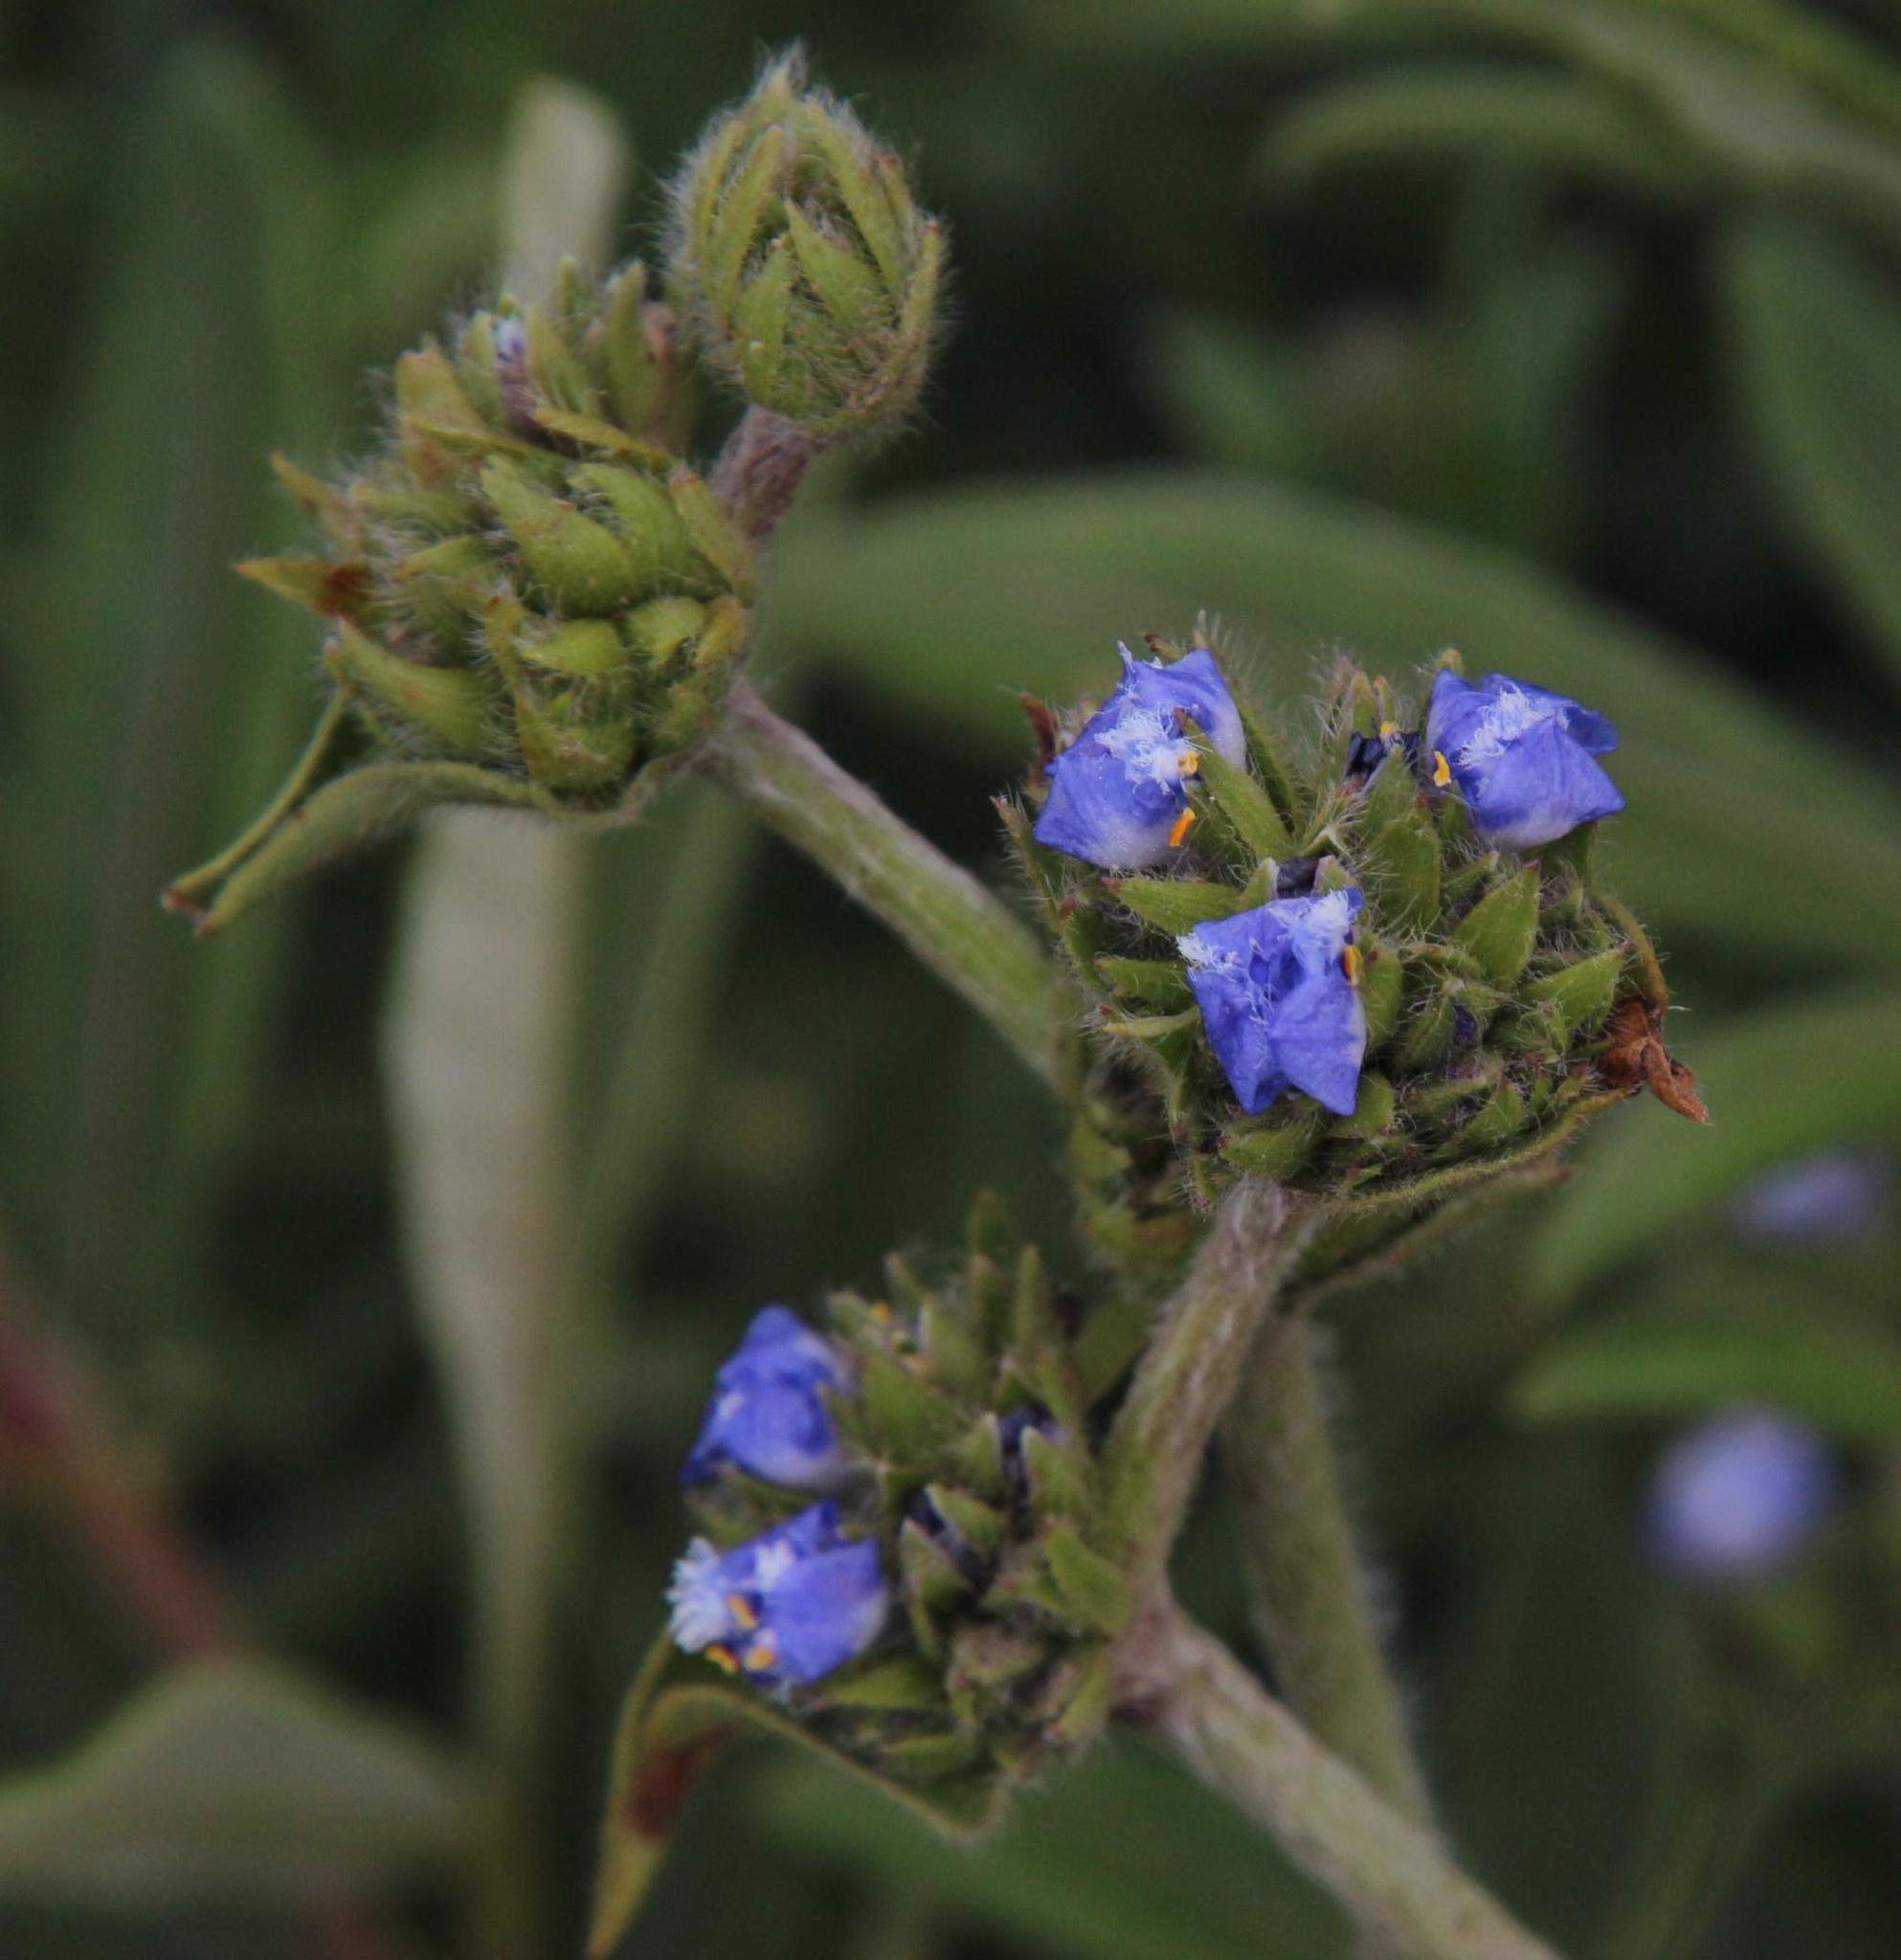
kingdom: Plantae
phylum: Tracheophyta
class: Liliopsida
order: Commelinales
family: Commelinaceae
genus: Cyanotis
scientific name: Cyanotis speciosa
